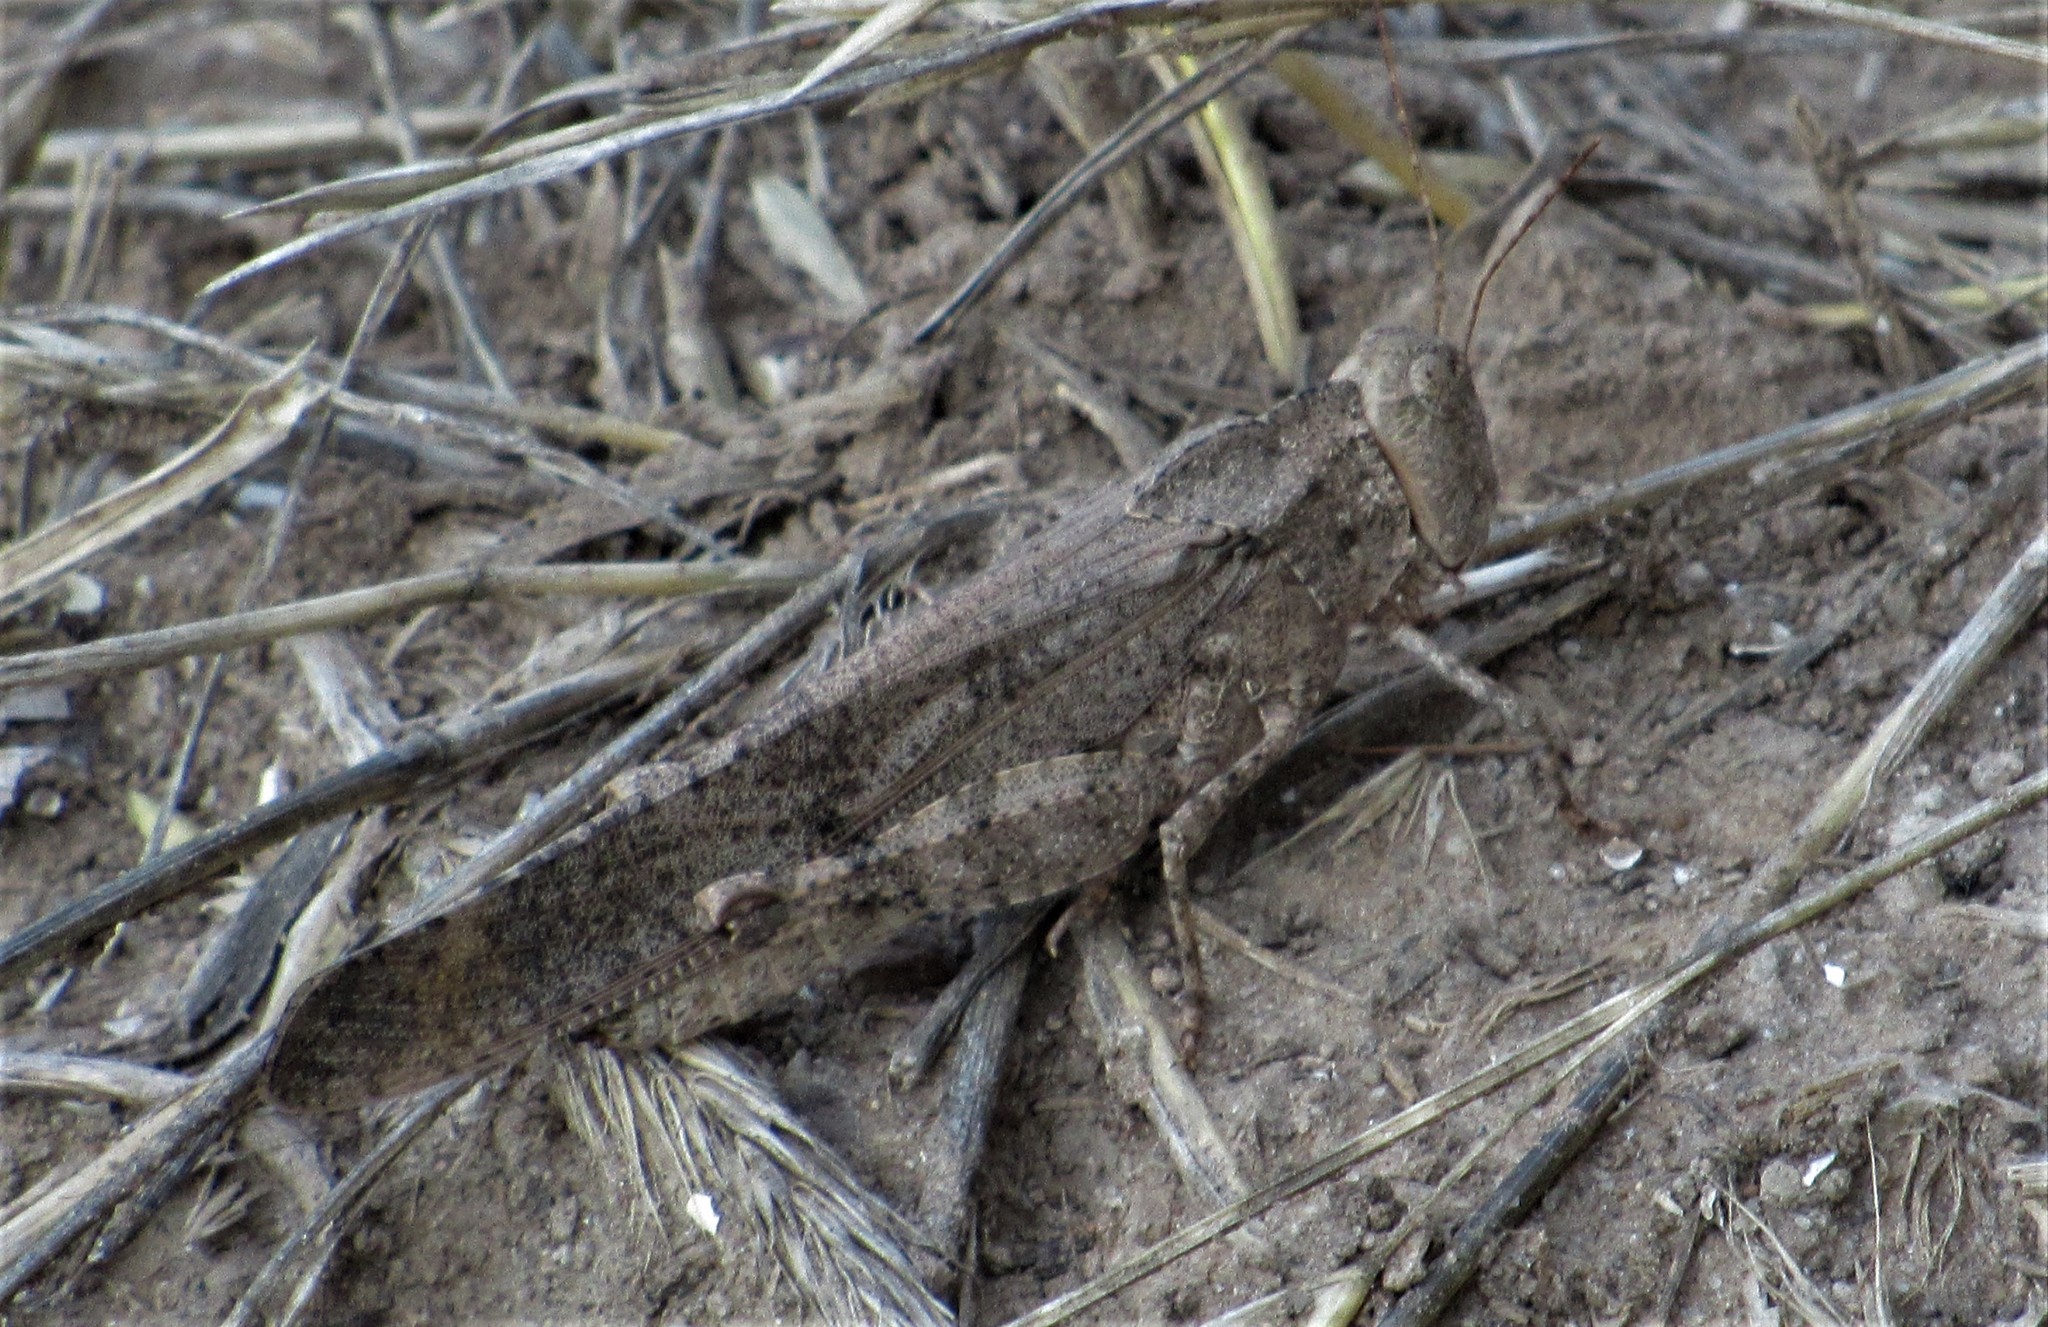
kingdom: Animalia
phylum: Arthropoda
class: Insecta
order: Orthoptera
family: Acrididae
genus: Dissosteira
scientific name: Dissosteira carolina
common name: Carolina grasshopper
